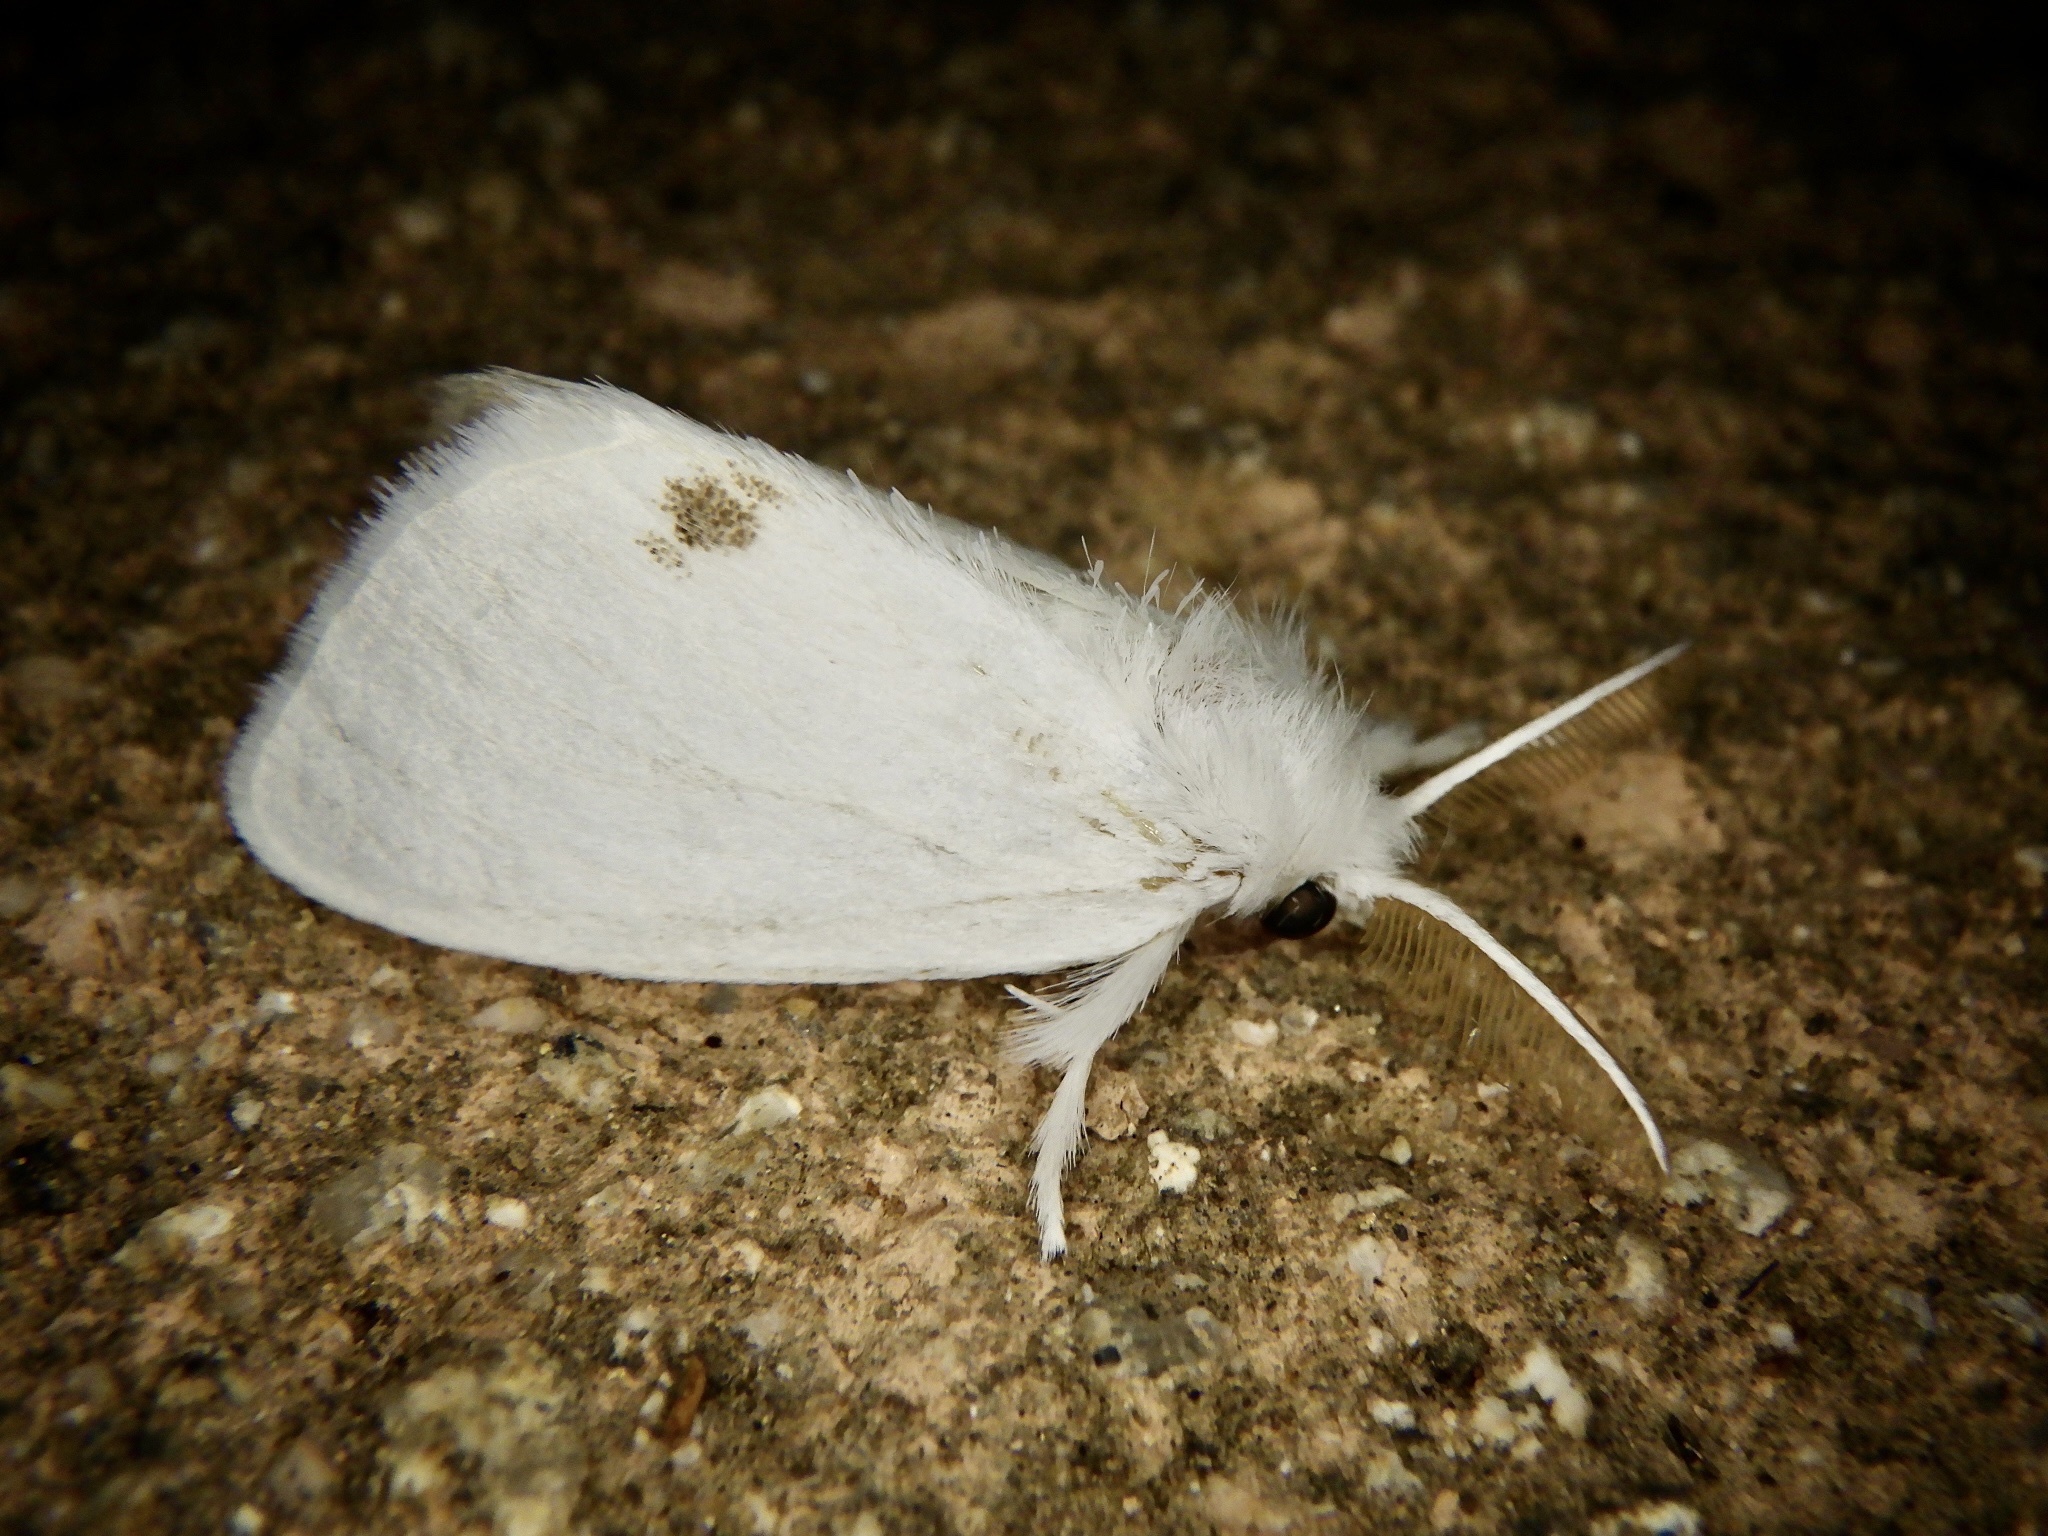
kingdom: Animalia
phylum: Arthropoda
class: Insecta
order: Lepidoptera
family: Erebidae
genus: Sphrageidus
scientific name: Sphrageidus similis
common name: Yellow-tail
